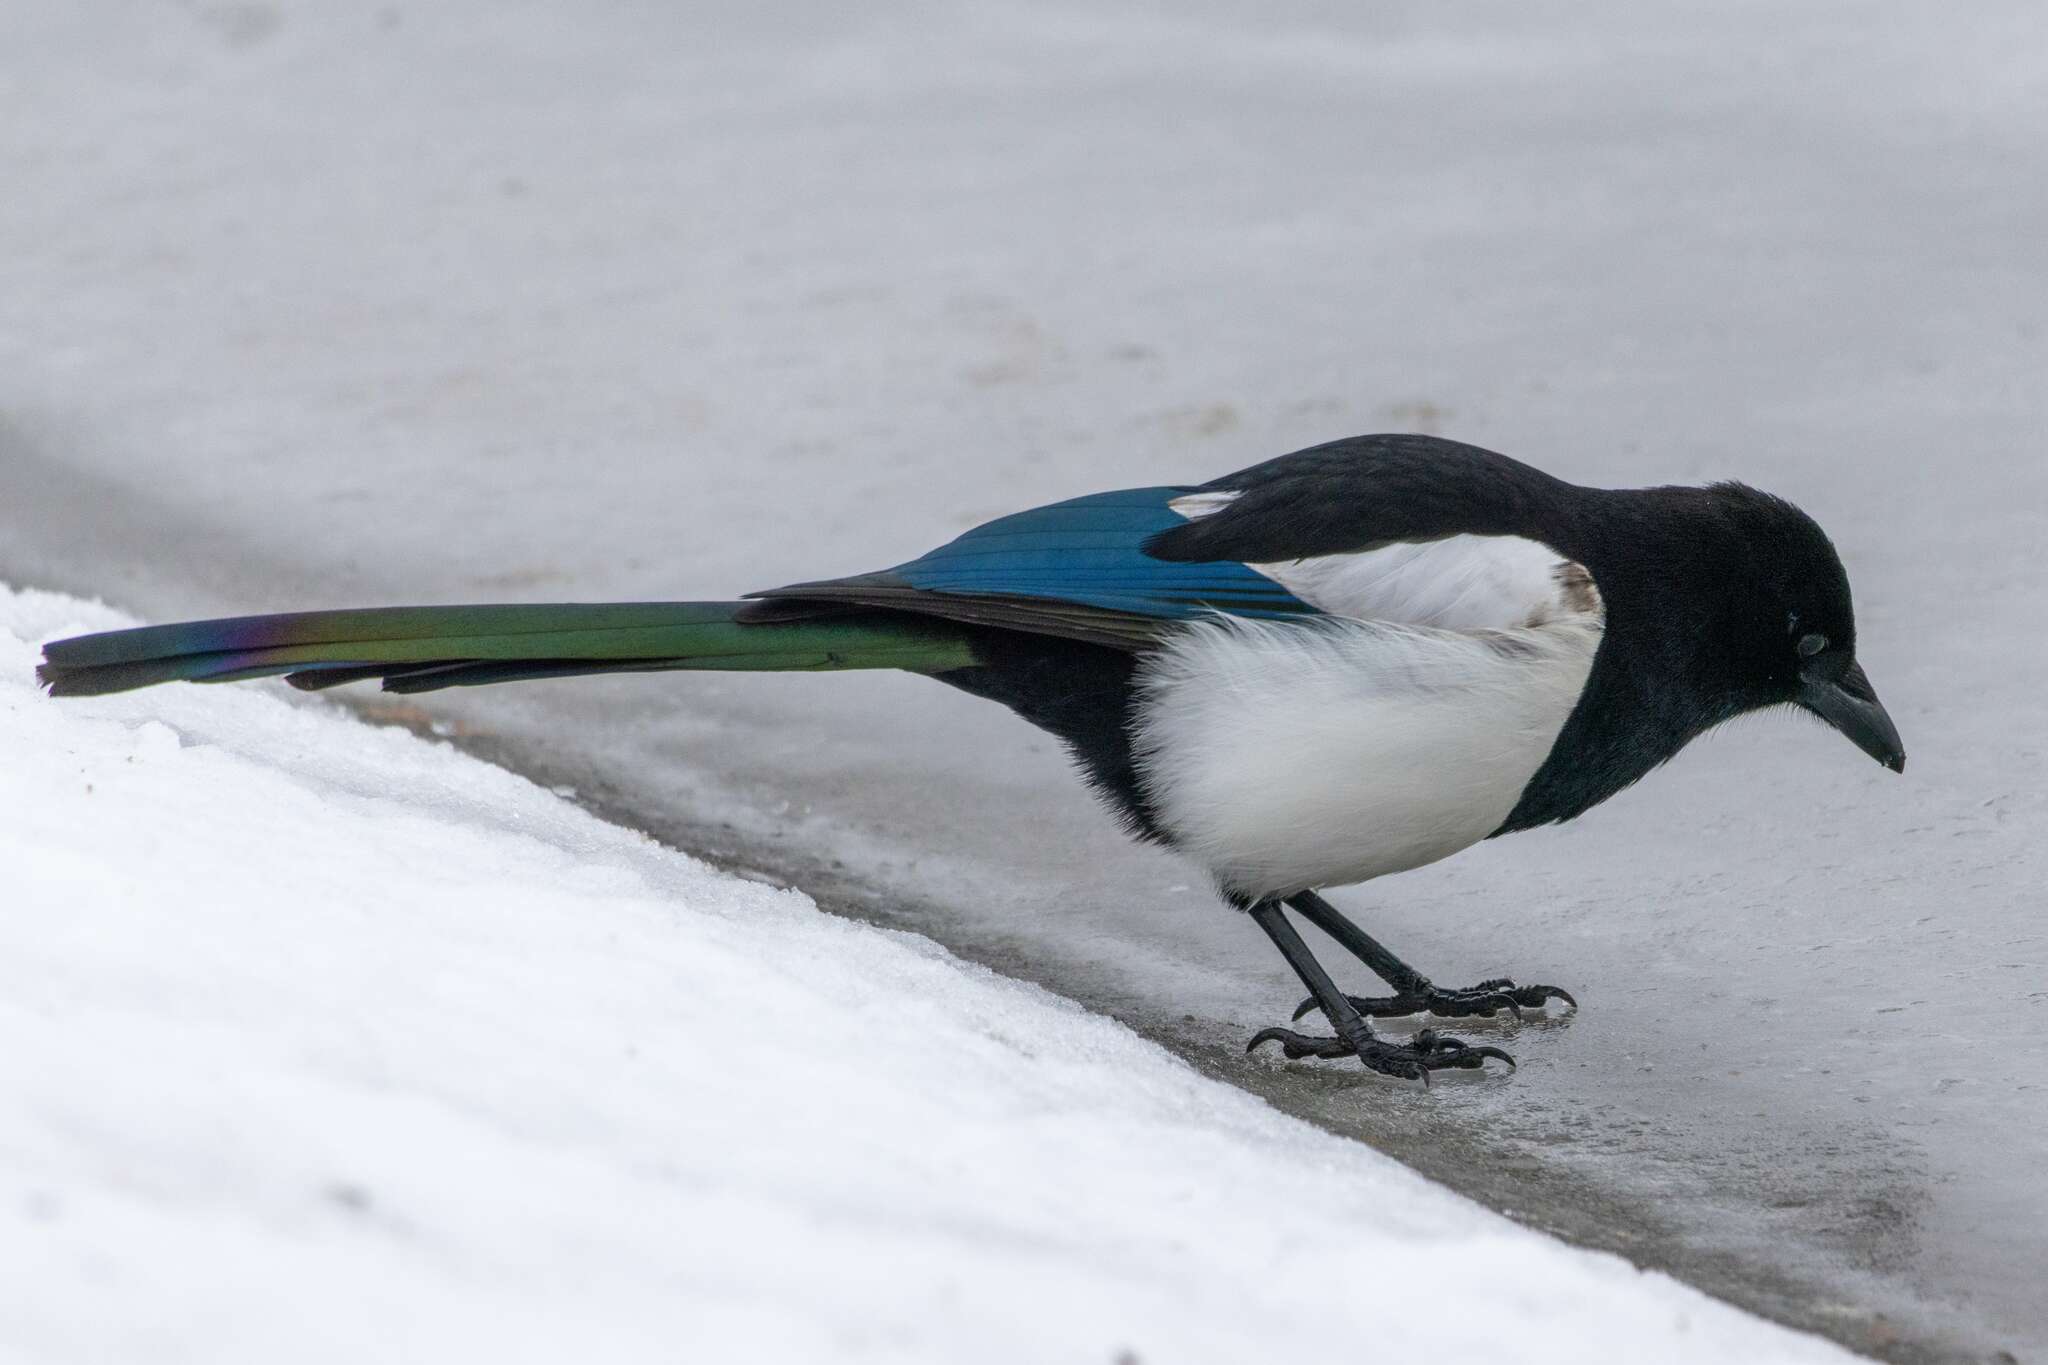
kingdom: Animalia
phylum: Chordata
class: Aves
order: Passeriformes
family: Corvidae
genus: Pica
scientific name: Pica pica
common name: Eurasian magpie
